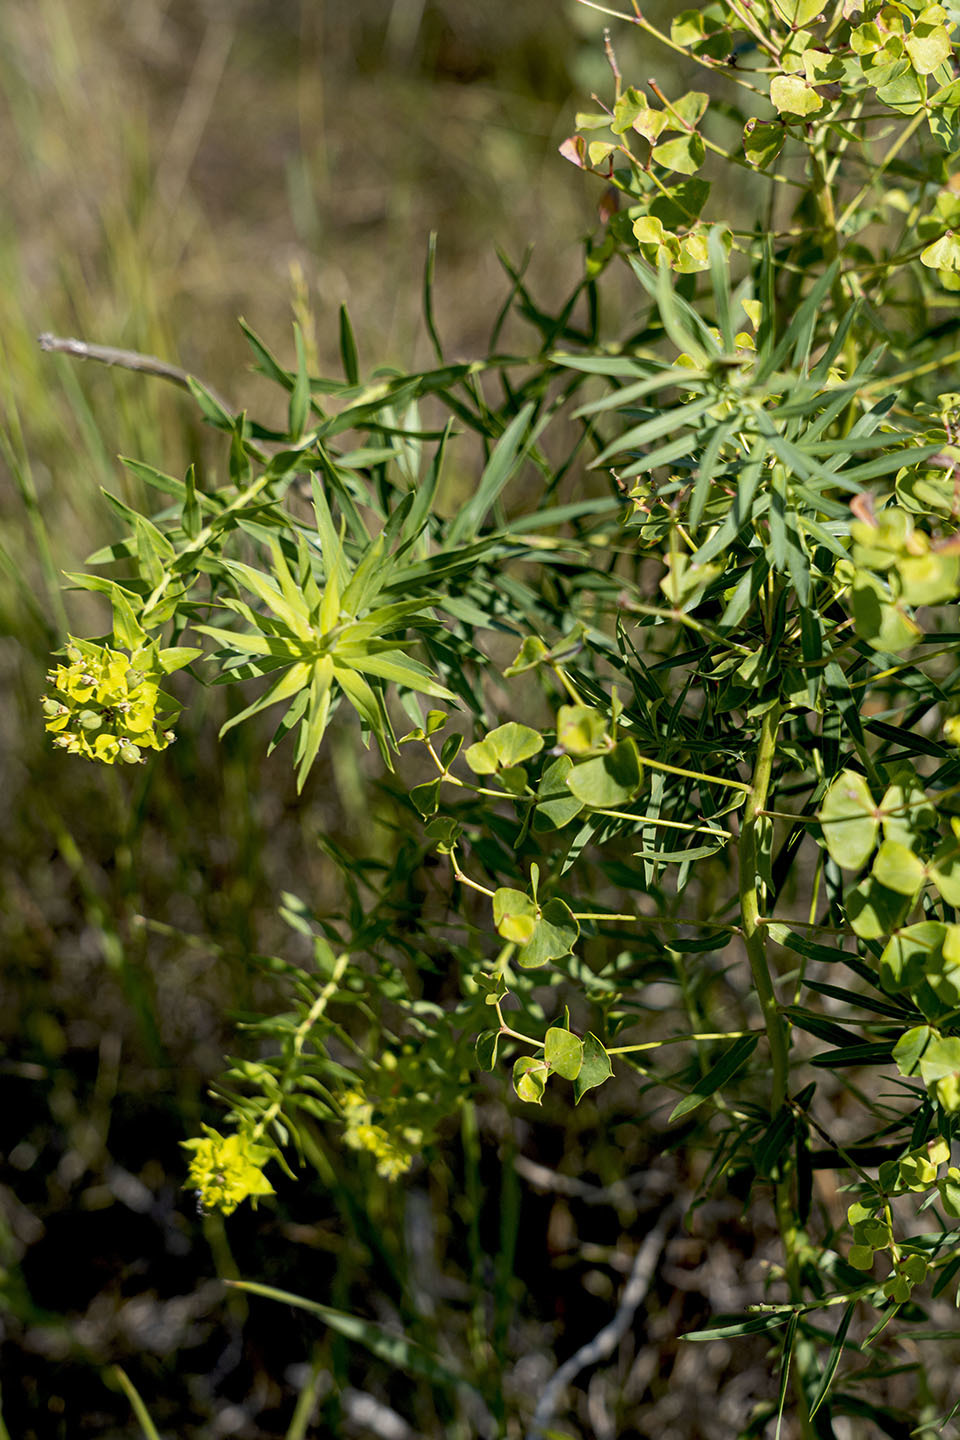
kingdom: Plantae
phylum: Tracheophyta
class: Magnoliopsida
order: Malpighiales
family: Euphorbiaceae
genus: Euphorbia
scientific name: Euphorbia virgata
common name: Leafy spurge
